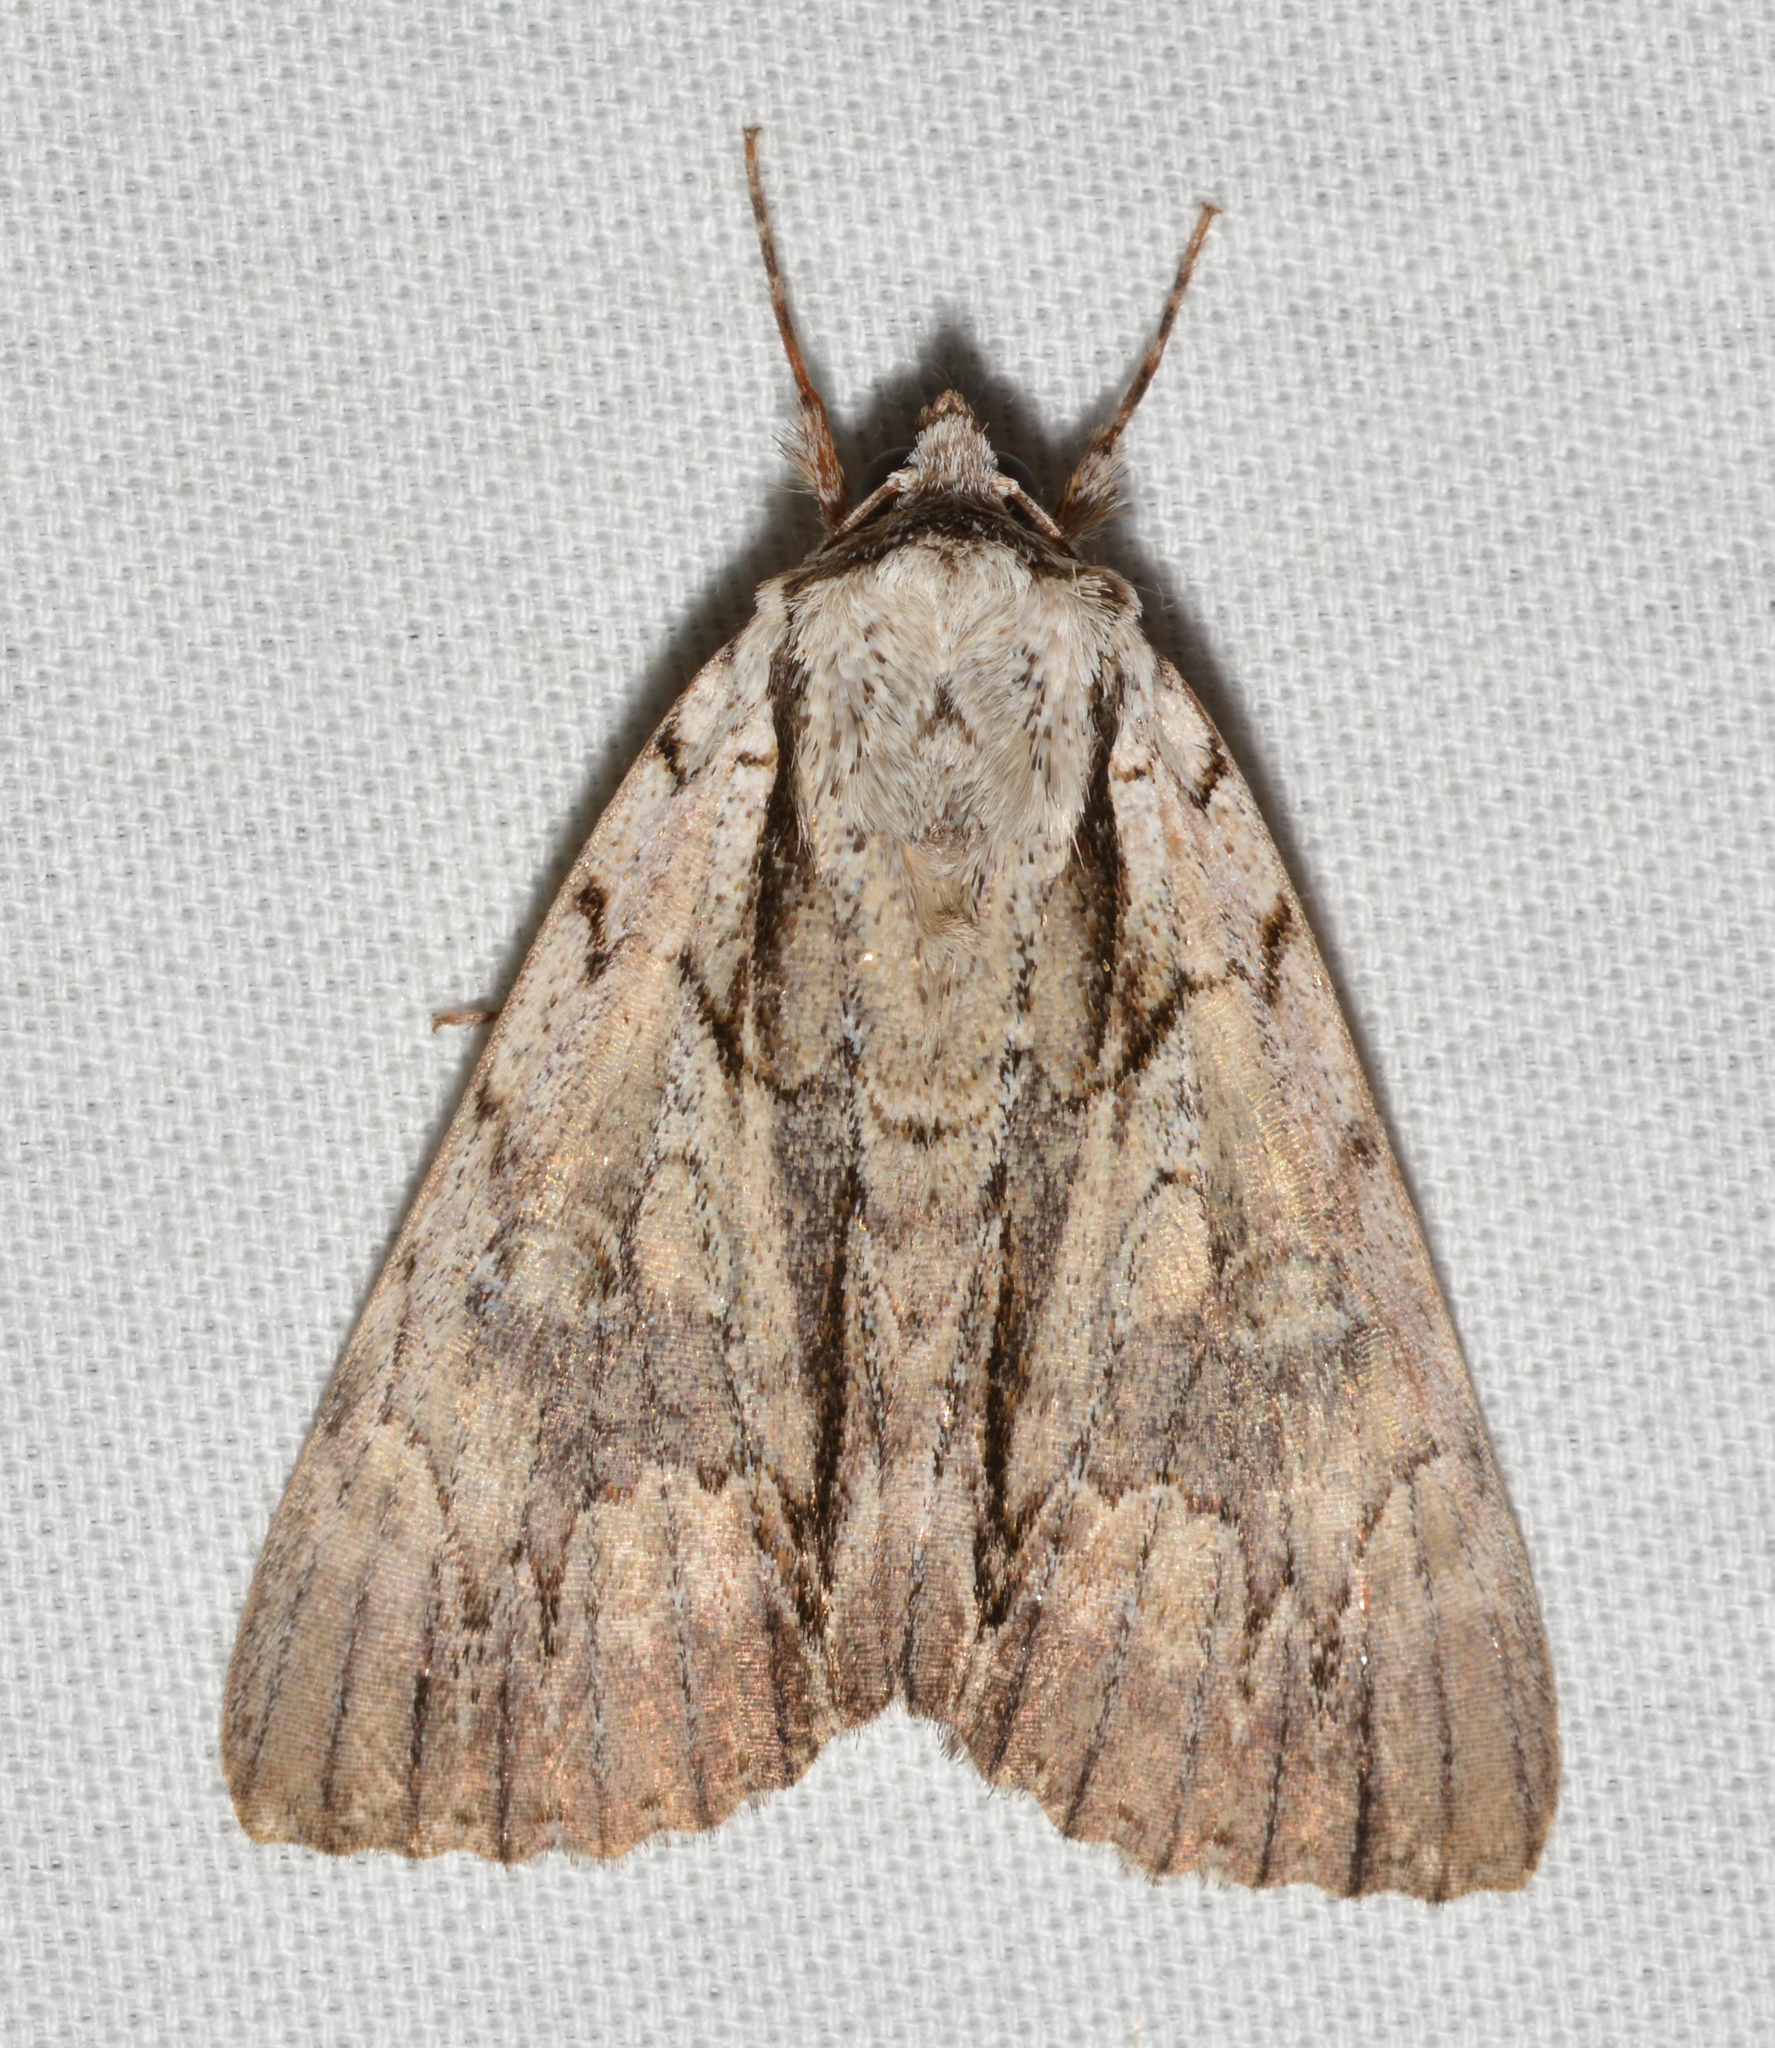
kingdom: Animalia
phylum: Arthropoda
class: Insecta
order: Lepidoptera
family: Erebidae
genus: Catocala
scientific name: Catocala clintonii
